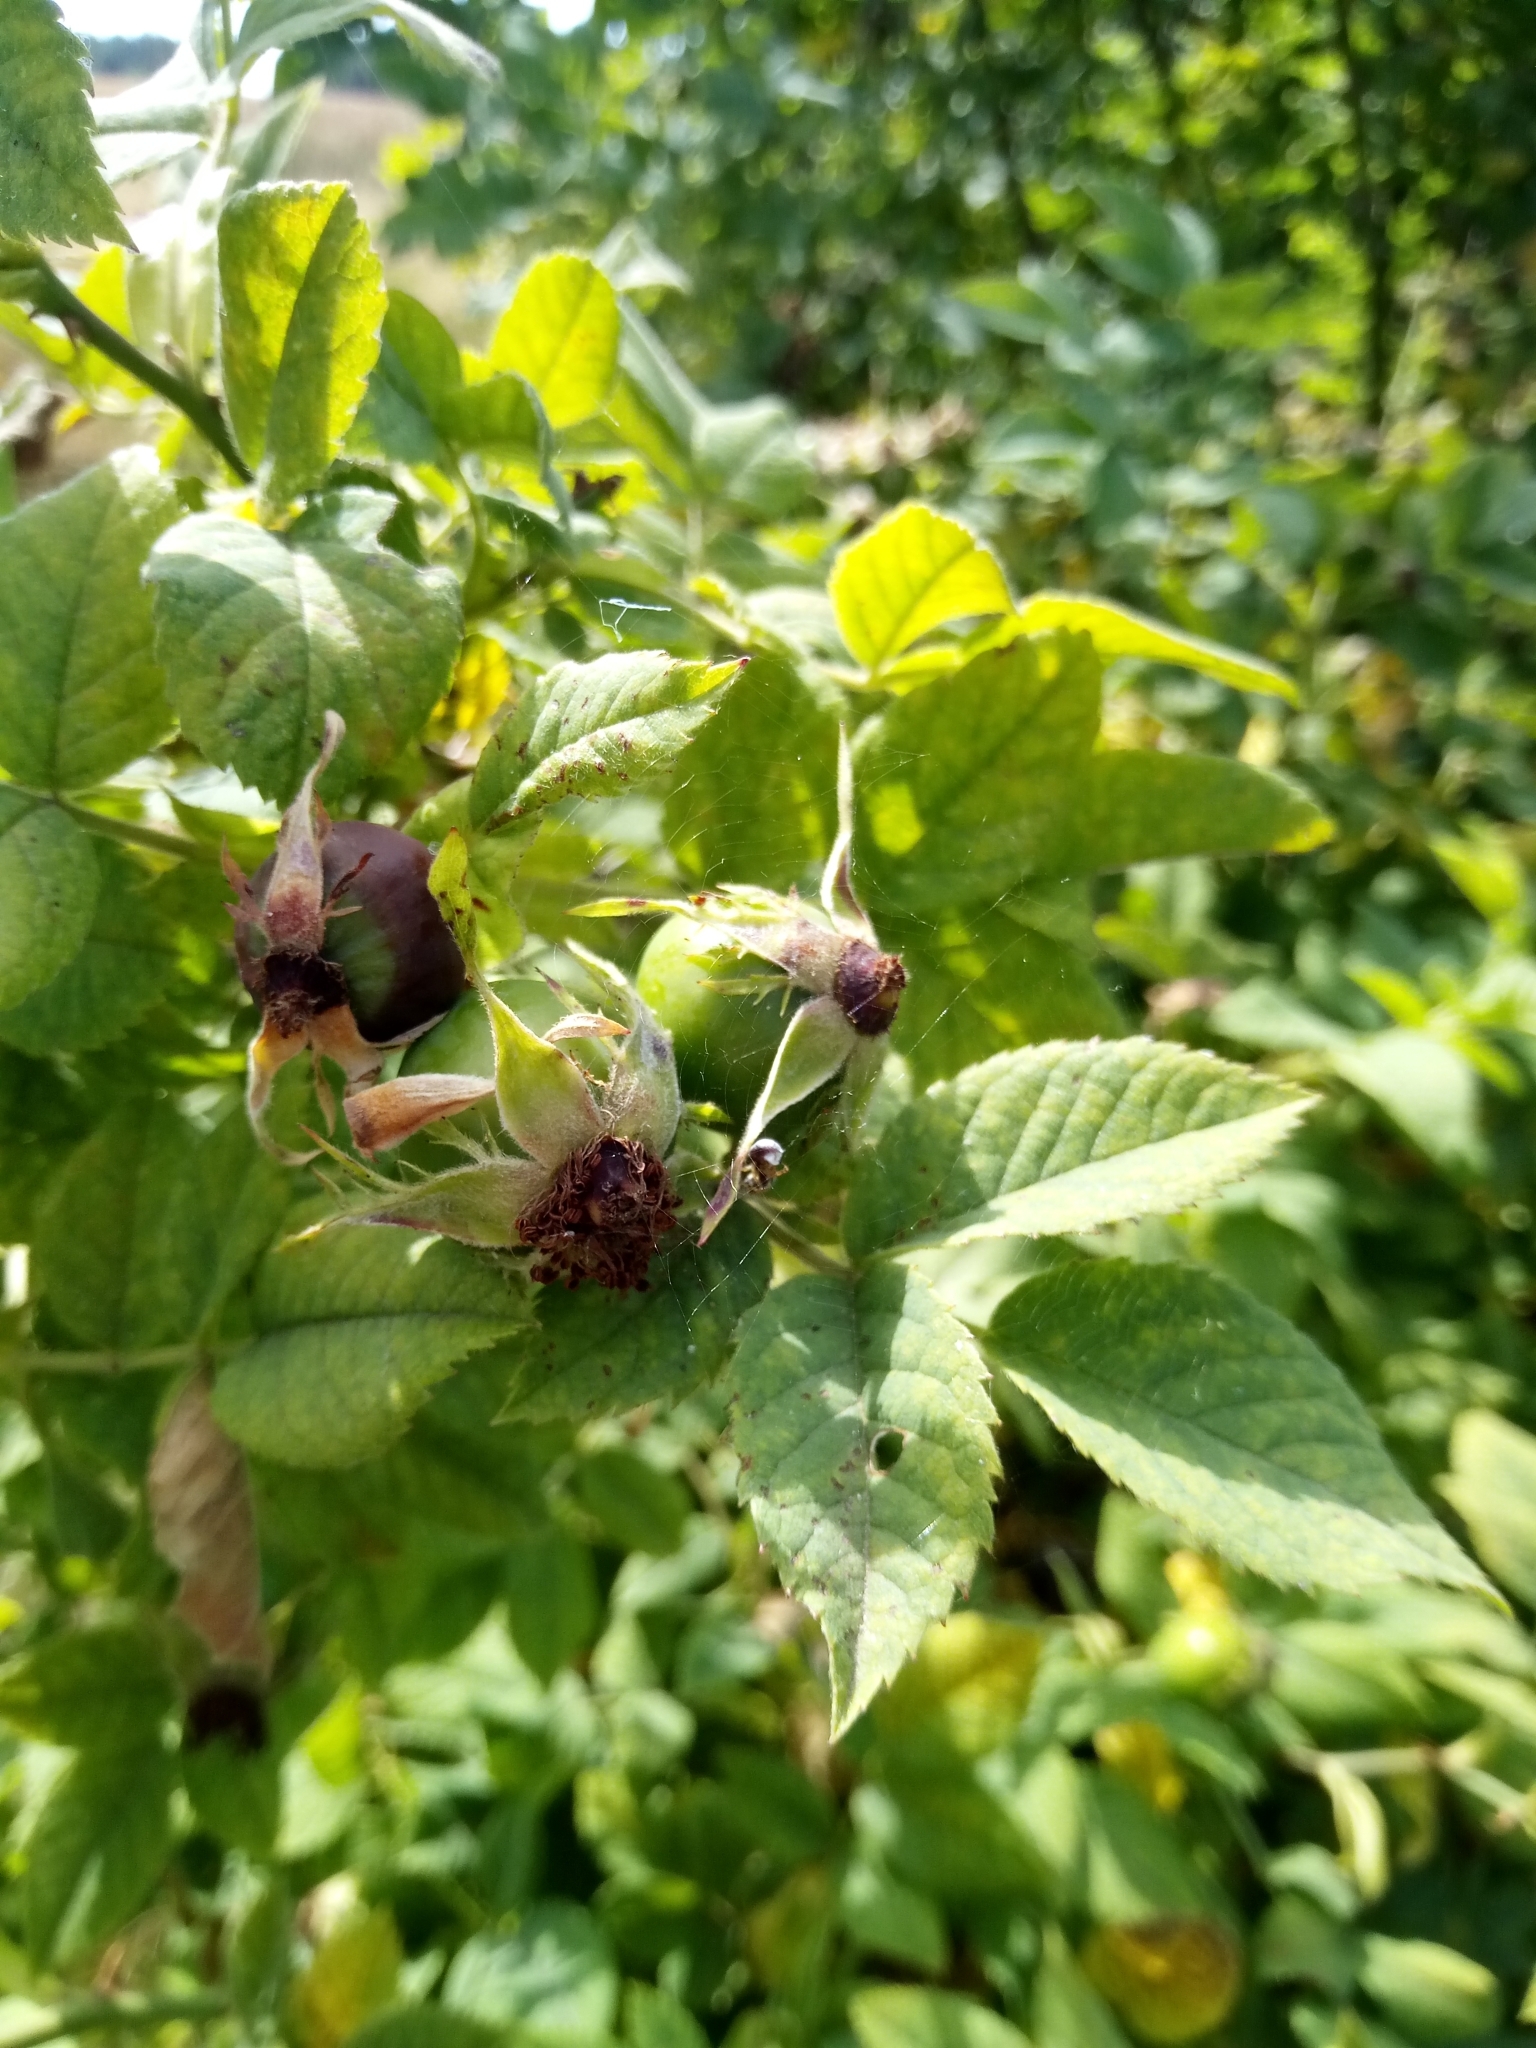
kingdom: Plantae
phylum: Tracheophyta
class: Magnoliopsida
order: Rosales
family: Rosaceae
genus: Rosa
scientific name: Rosa corymbifera
